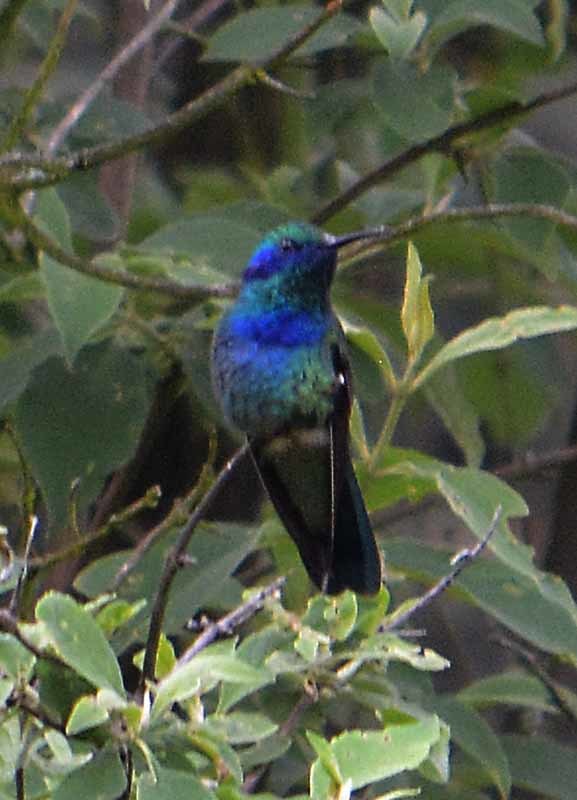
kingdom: Animalia
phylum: Chordata
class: Aves
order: Apodiformes
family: Trochilidae
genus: Colibri
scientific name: Colibri thalassinus
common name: Green violetear
